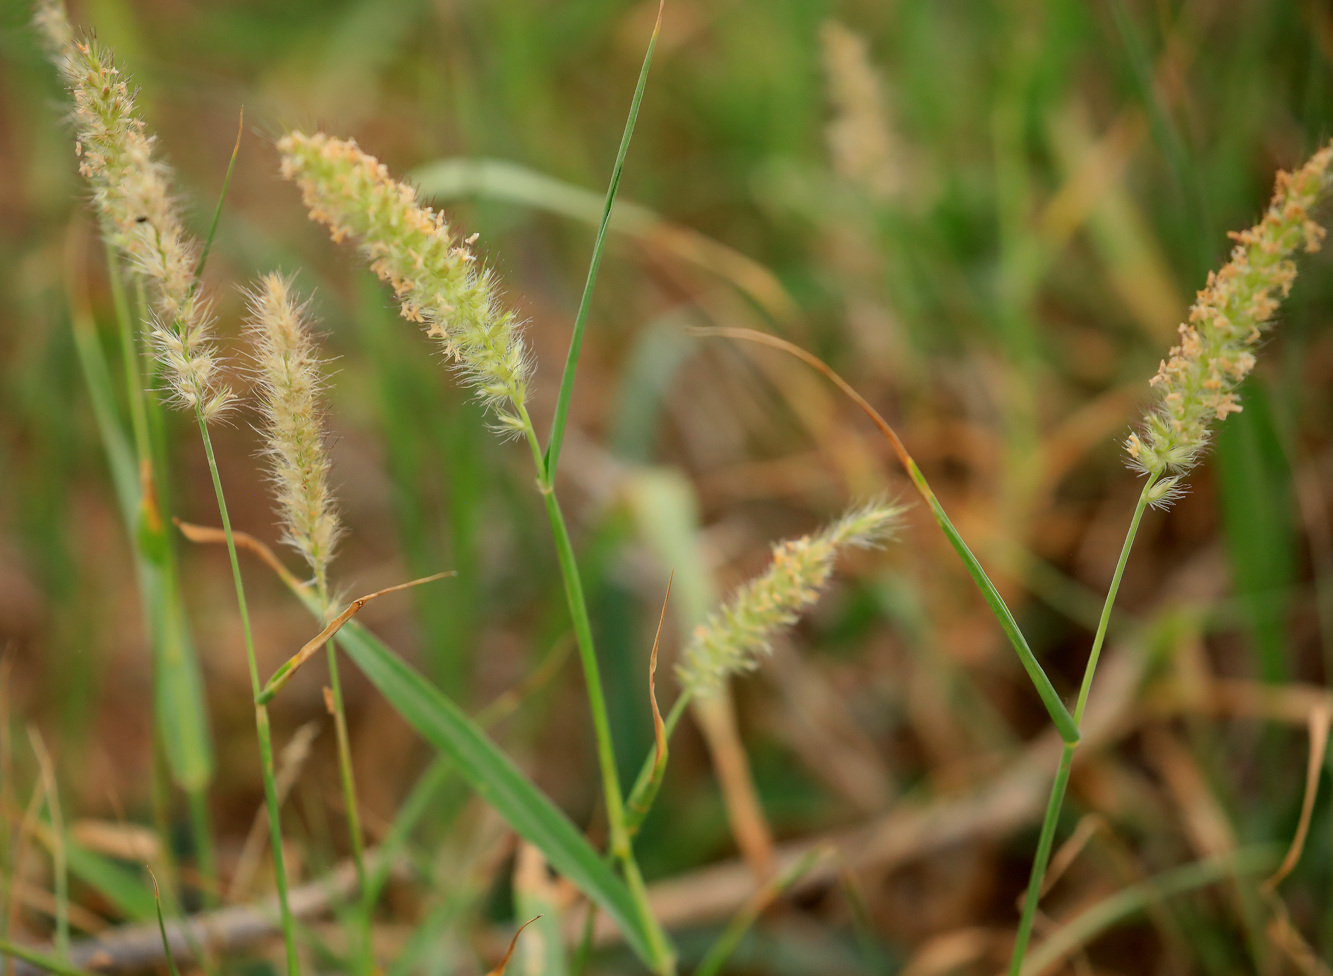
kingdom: Plantae
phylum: Tracheophyta
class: Liliopsida
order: Poales
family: Poaceae
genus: Cenchrus
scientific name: Cenchrus ciliaris
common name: Buffelgrass
